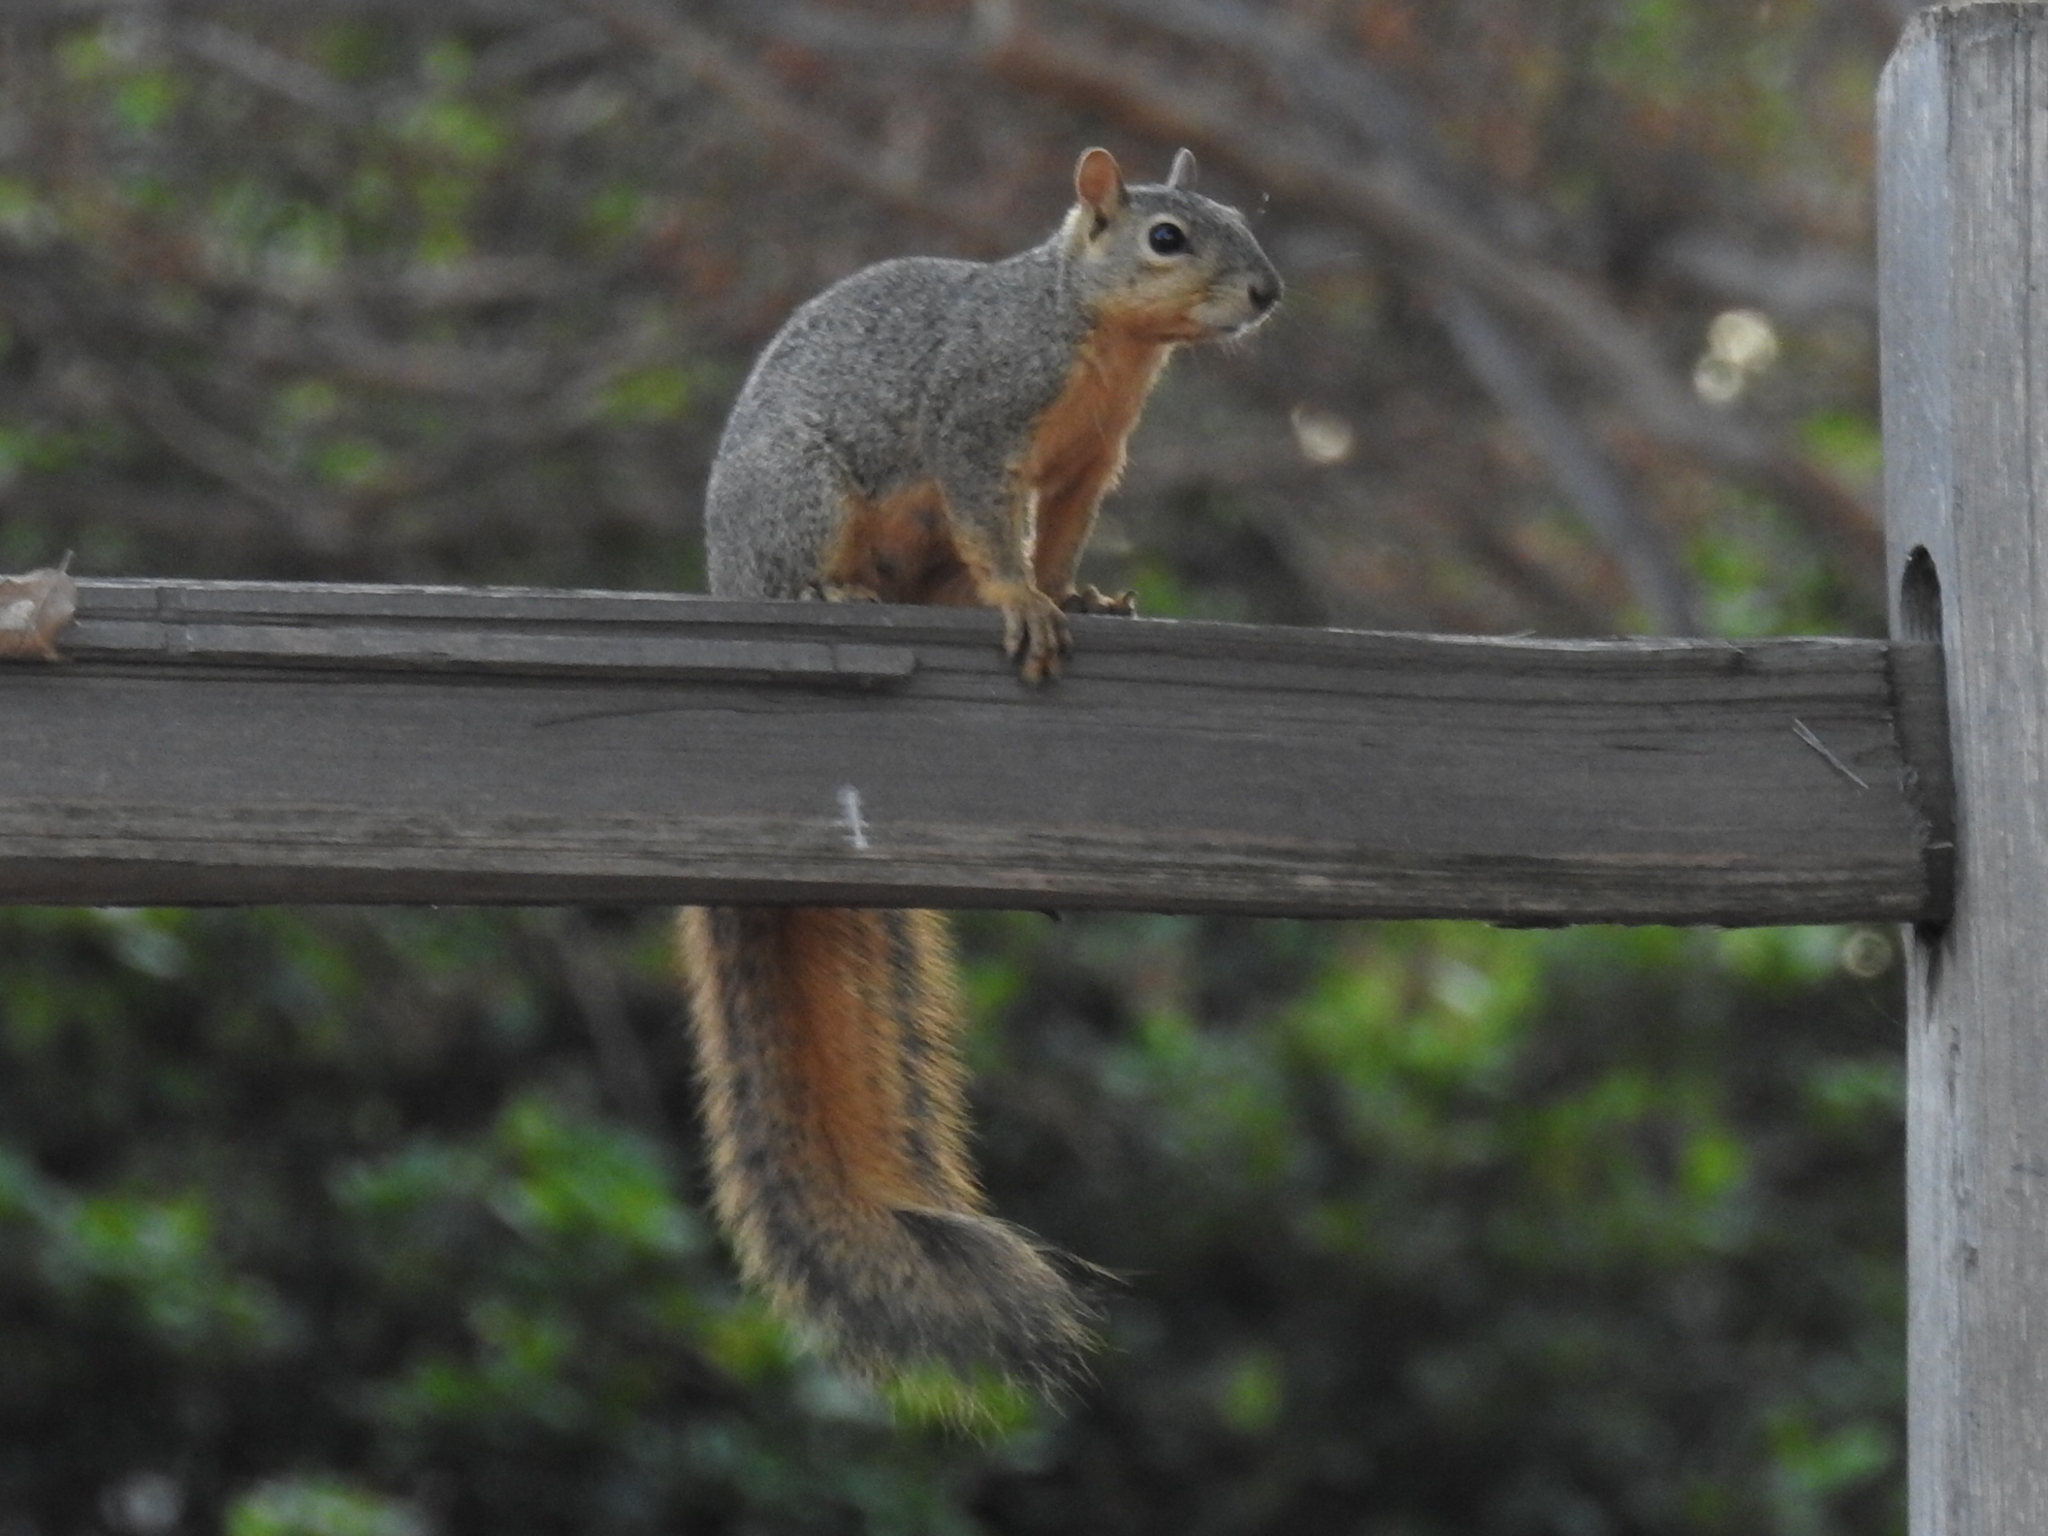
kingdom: Animalia
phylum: Chordata
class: Mammalia
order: Rodentia
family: Sciuridae
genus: Sciurus
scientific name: Sciurus niger
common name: Fox squirrel
